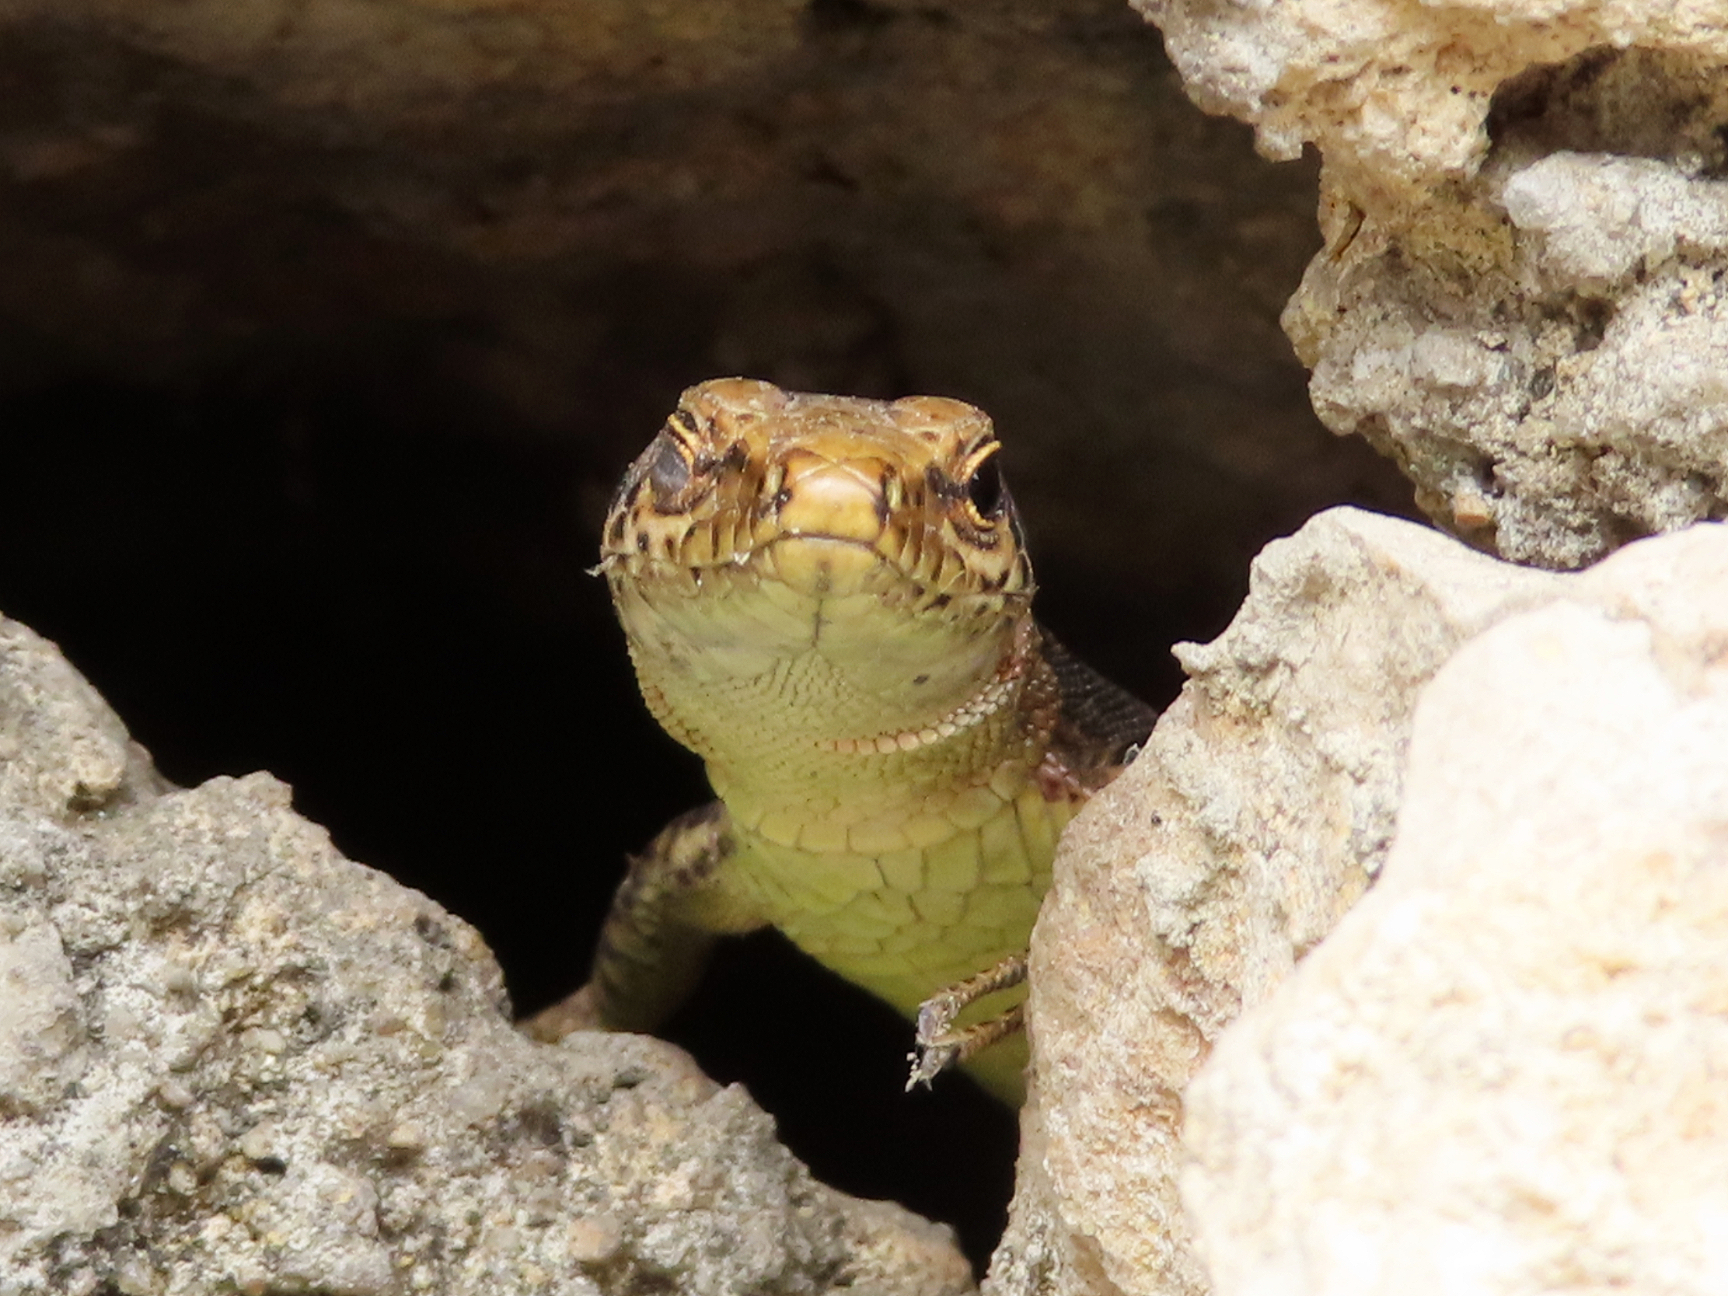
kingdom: Animalia
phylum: Chordata
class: Squamata
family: Lacertidae
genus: Darevskia
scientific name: Darevskia mixta
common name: Ajarian lizard
